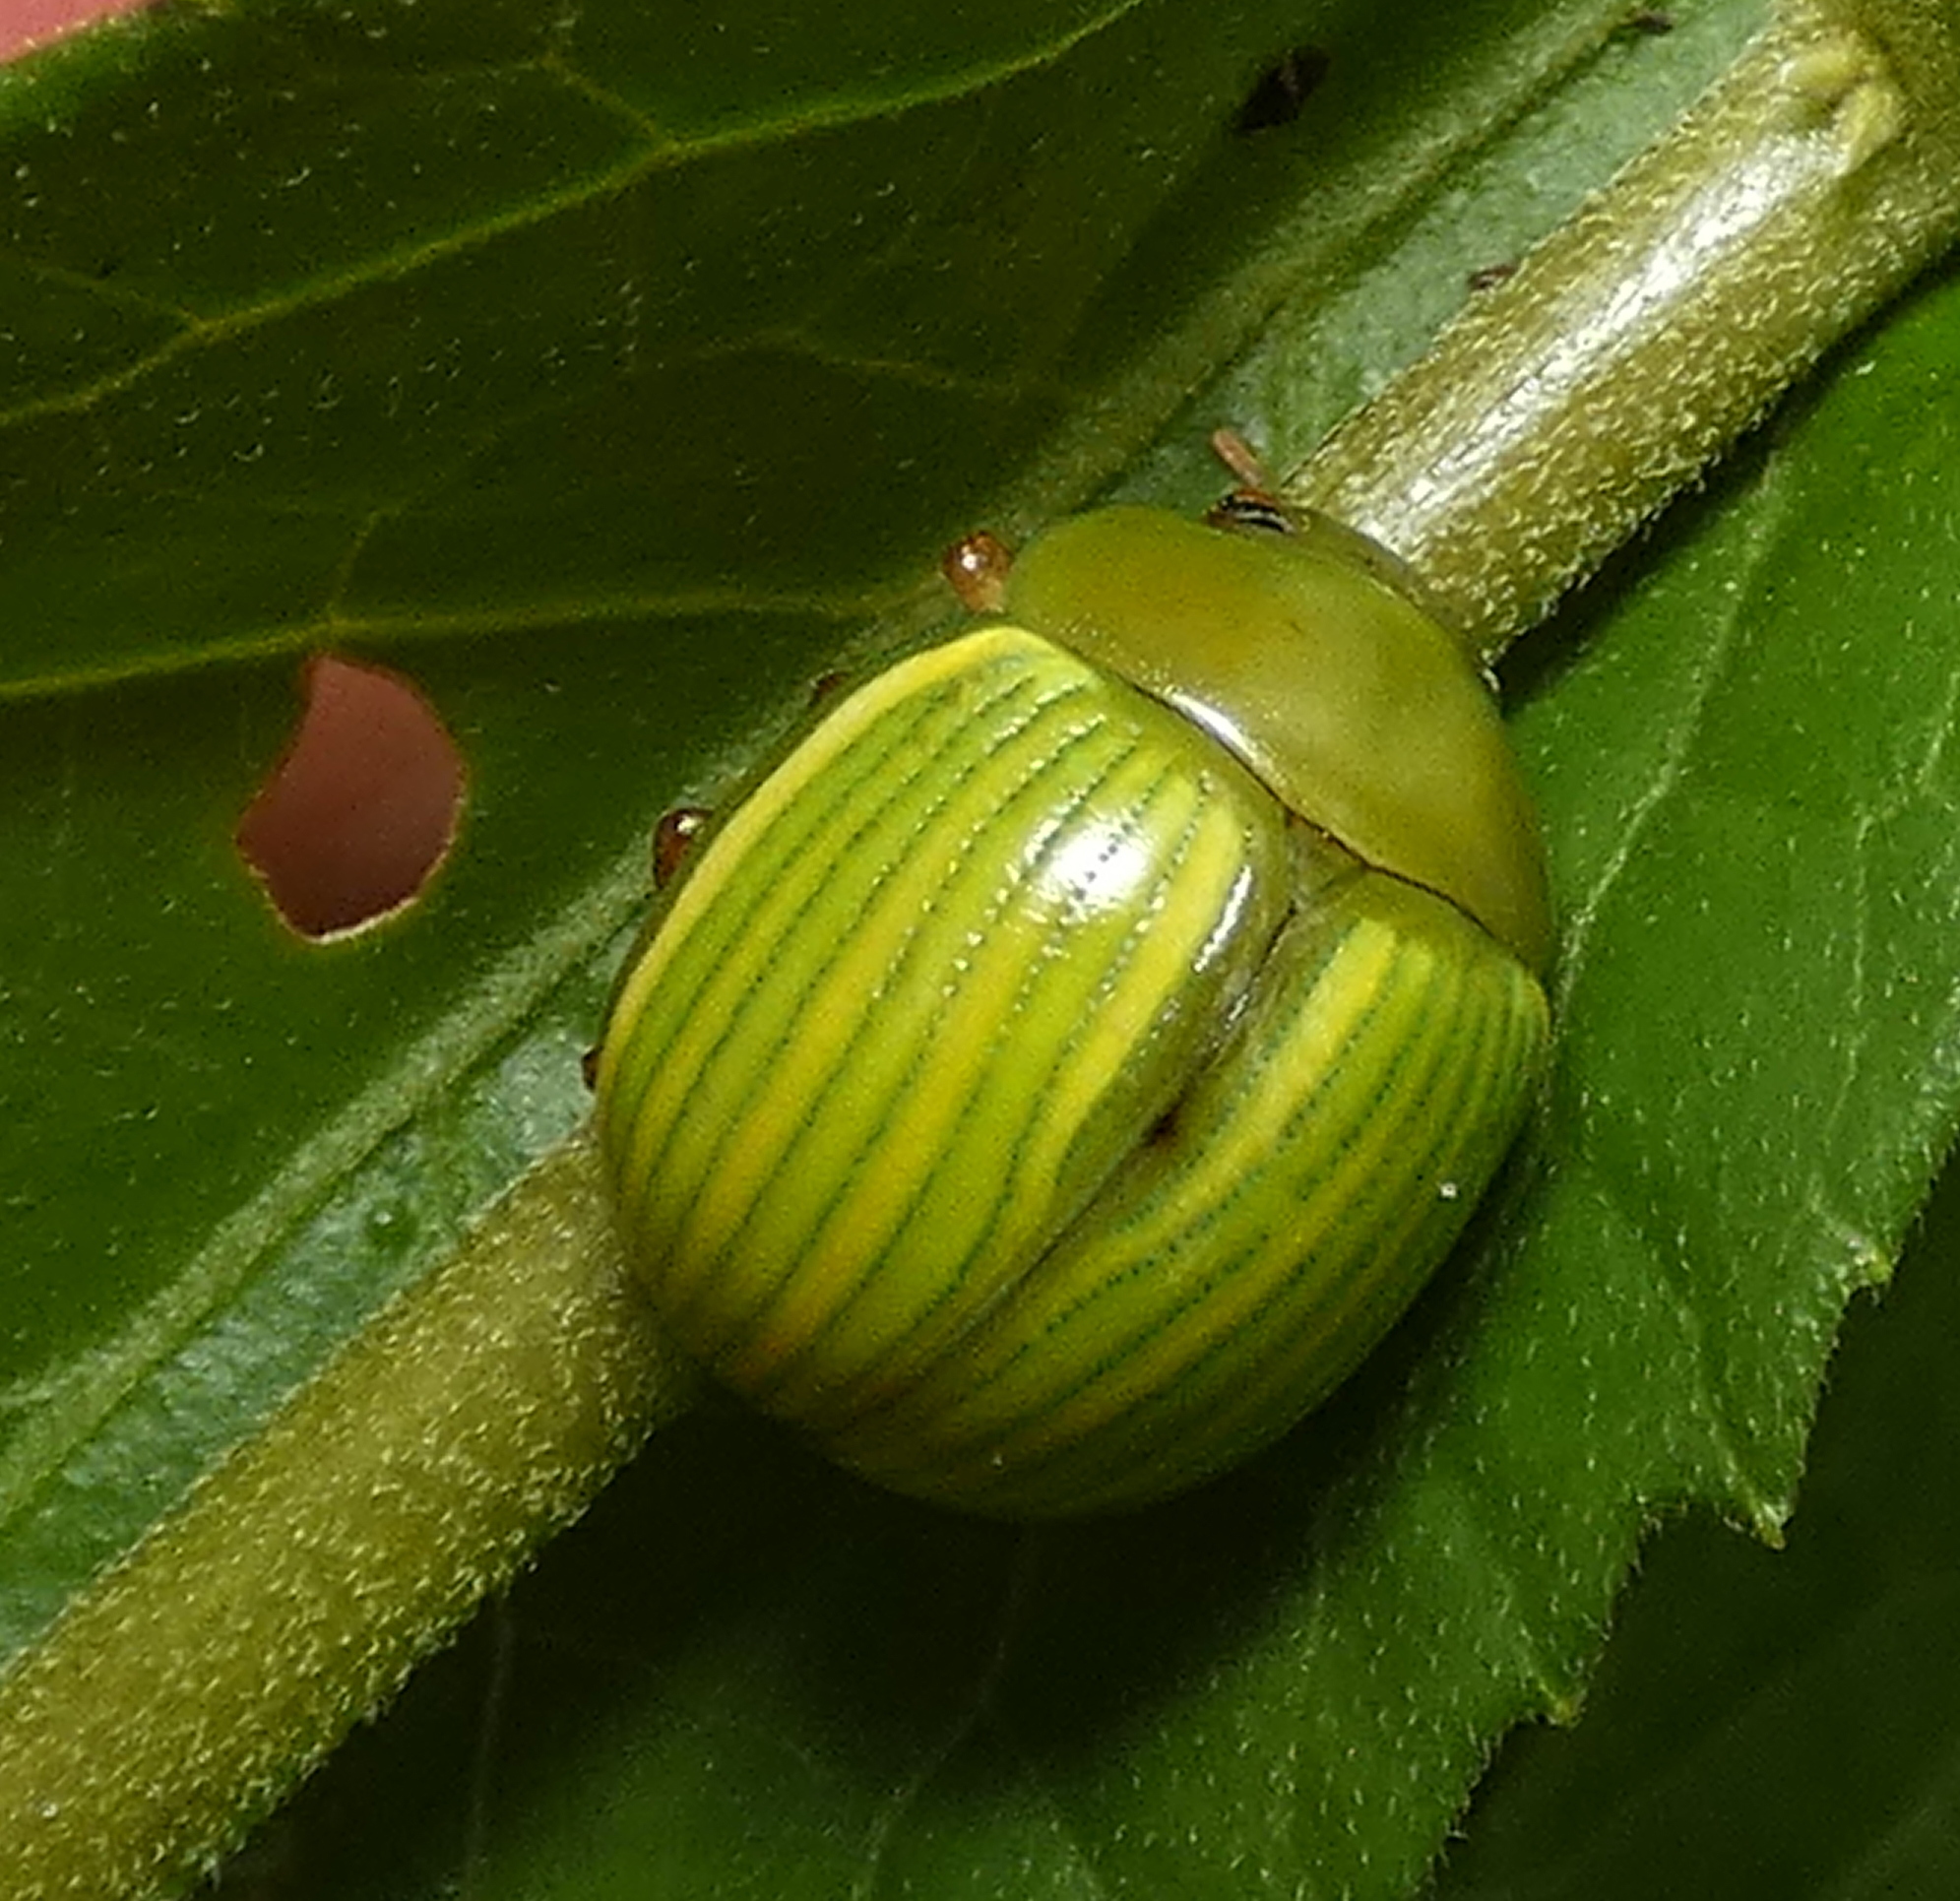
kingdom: Animalia
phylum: Arthropoda
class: Insecta
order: Coleoptera
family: Chrysomelidae
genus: Platyphora
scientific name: Platyphora
